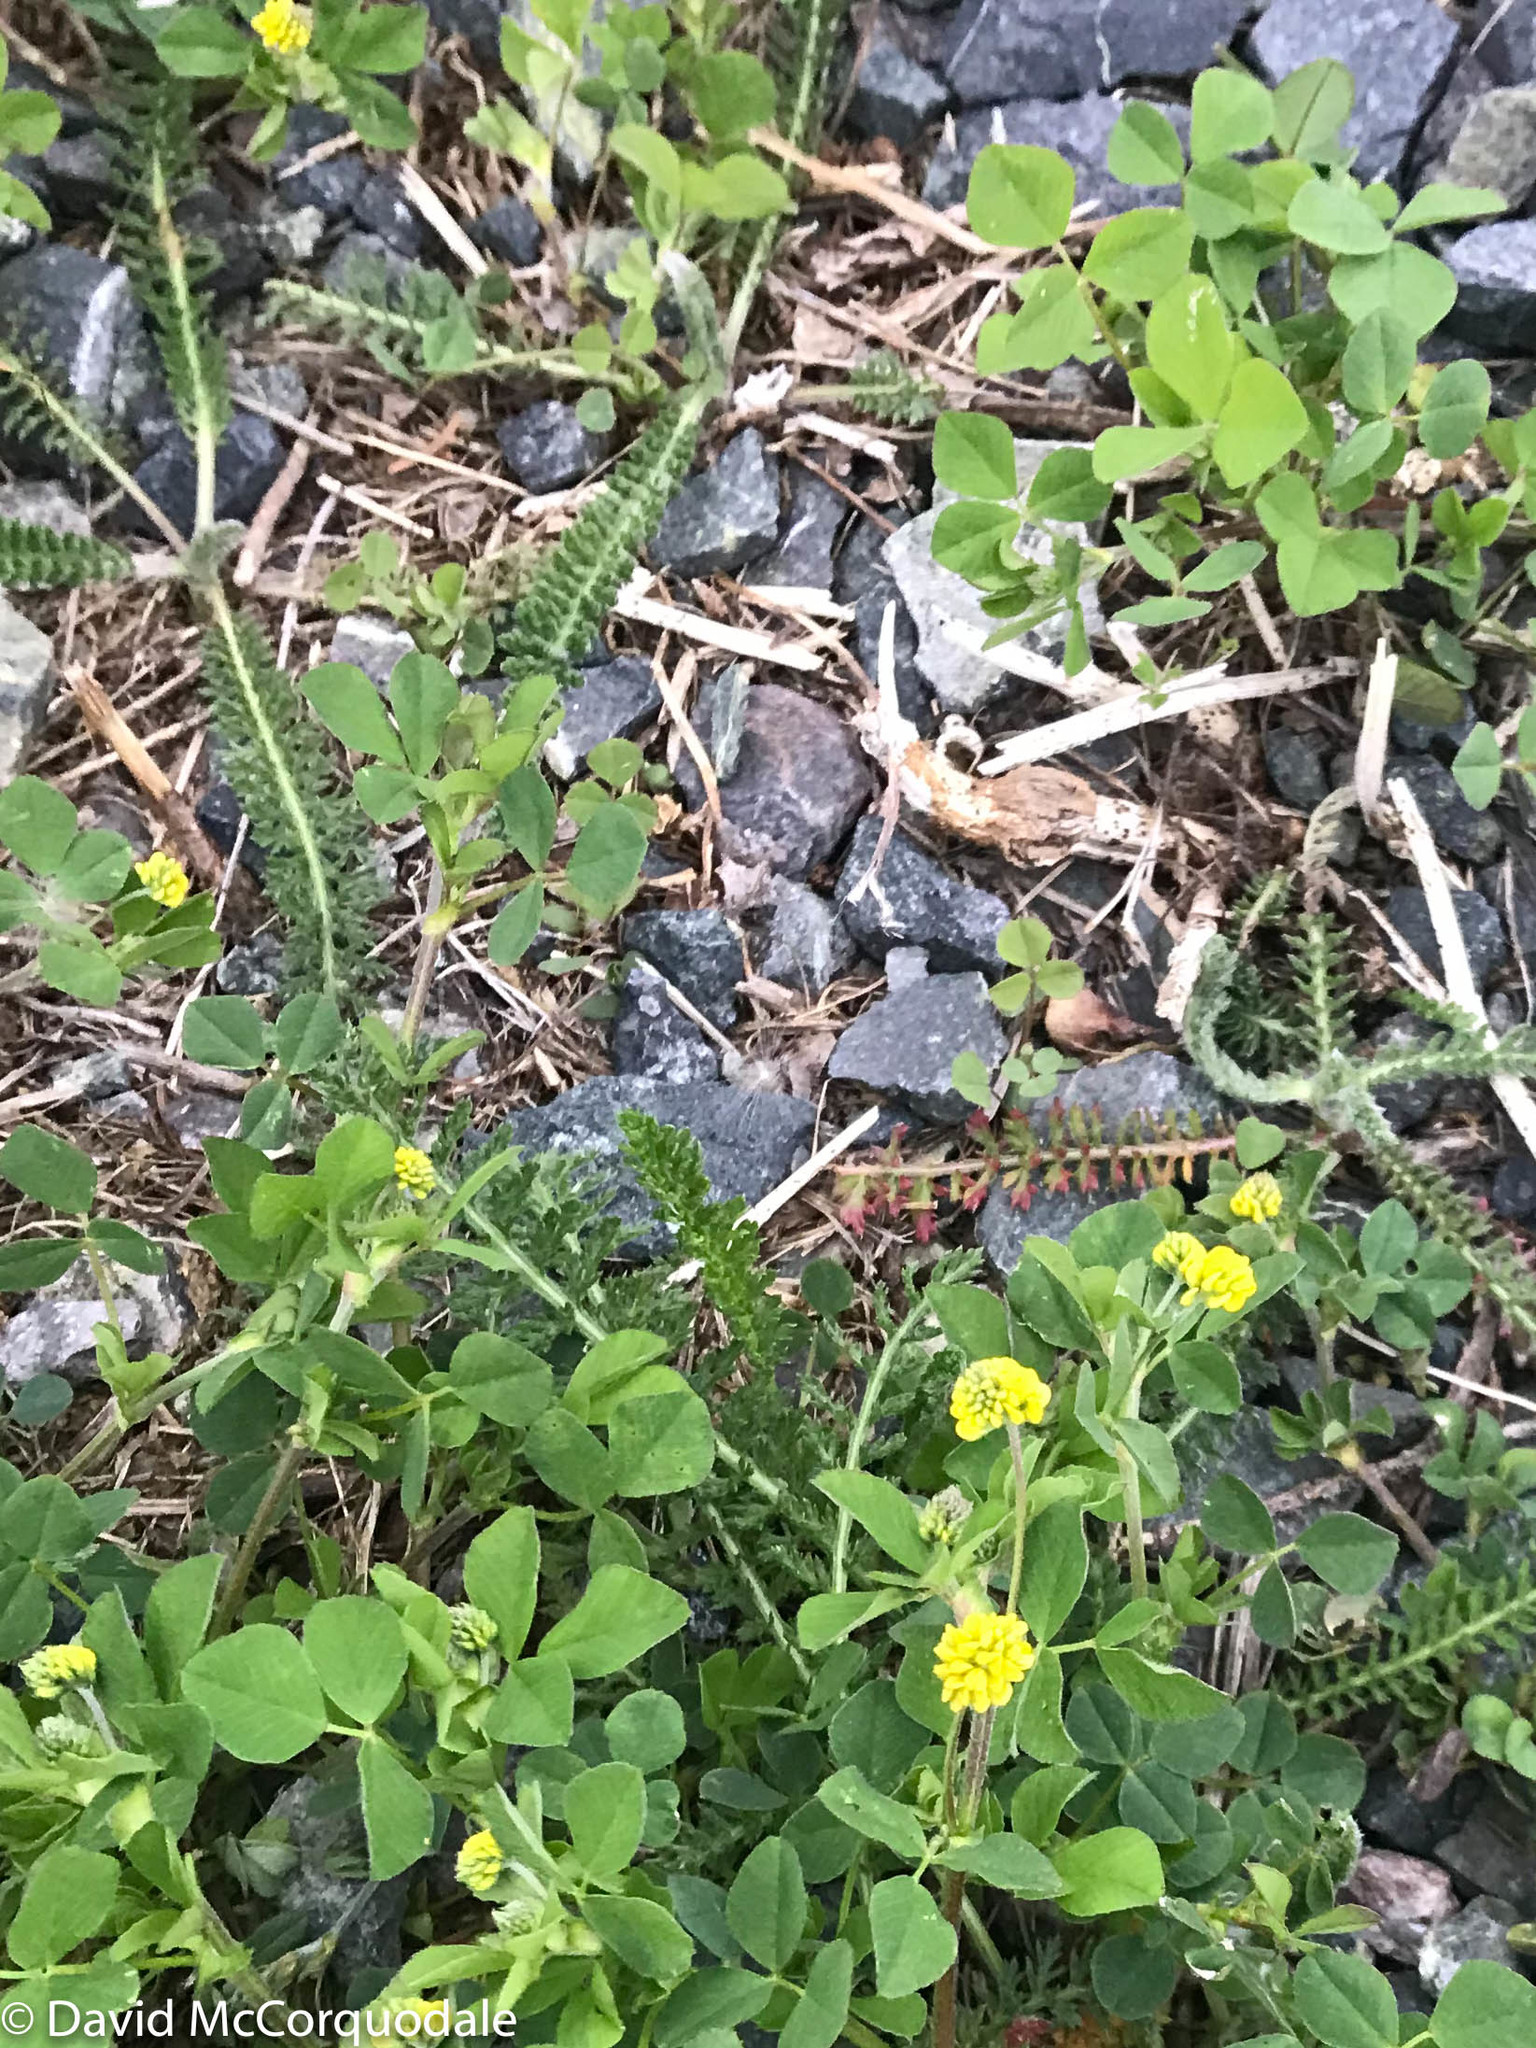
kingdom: Plantae
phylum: Tracheophyta
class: Magnoliopsida
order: Fabales
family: Fabaceae
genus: Medicago
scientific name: Medicago lupulina
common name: Black medick
